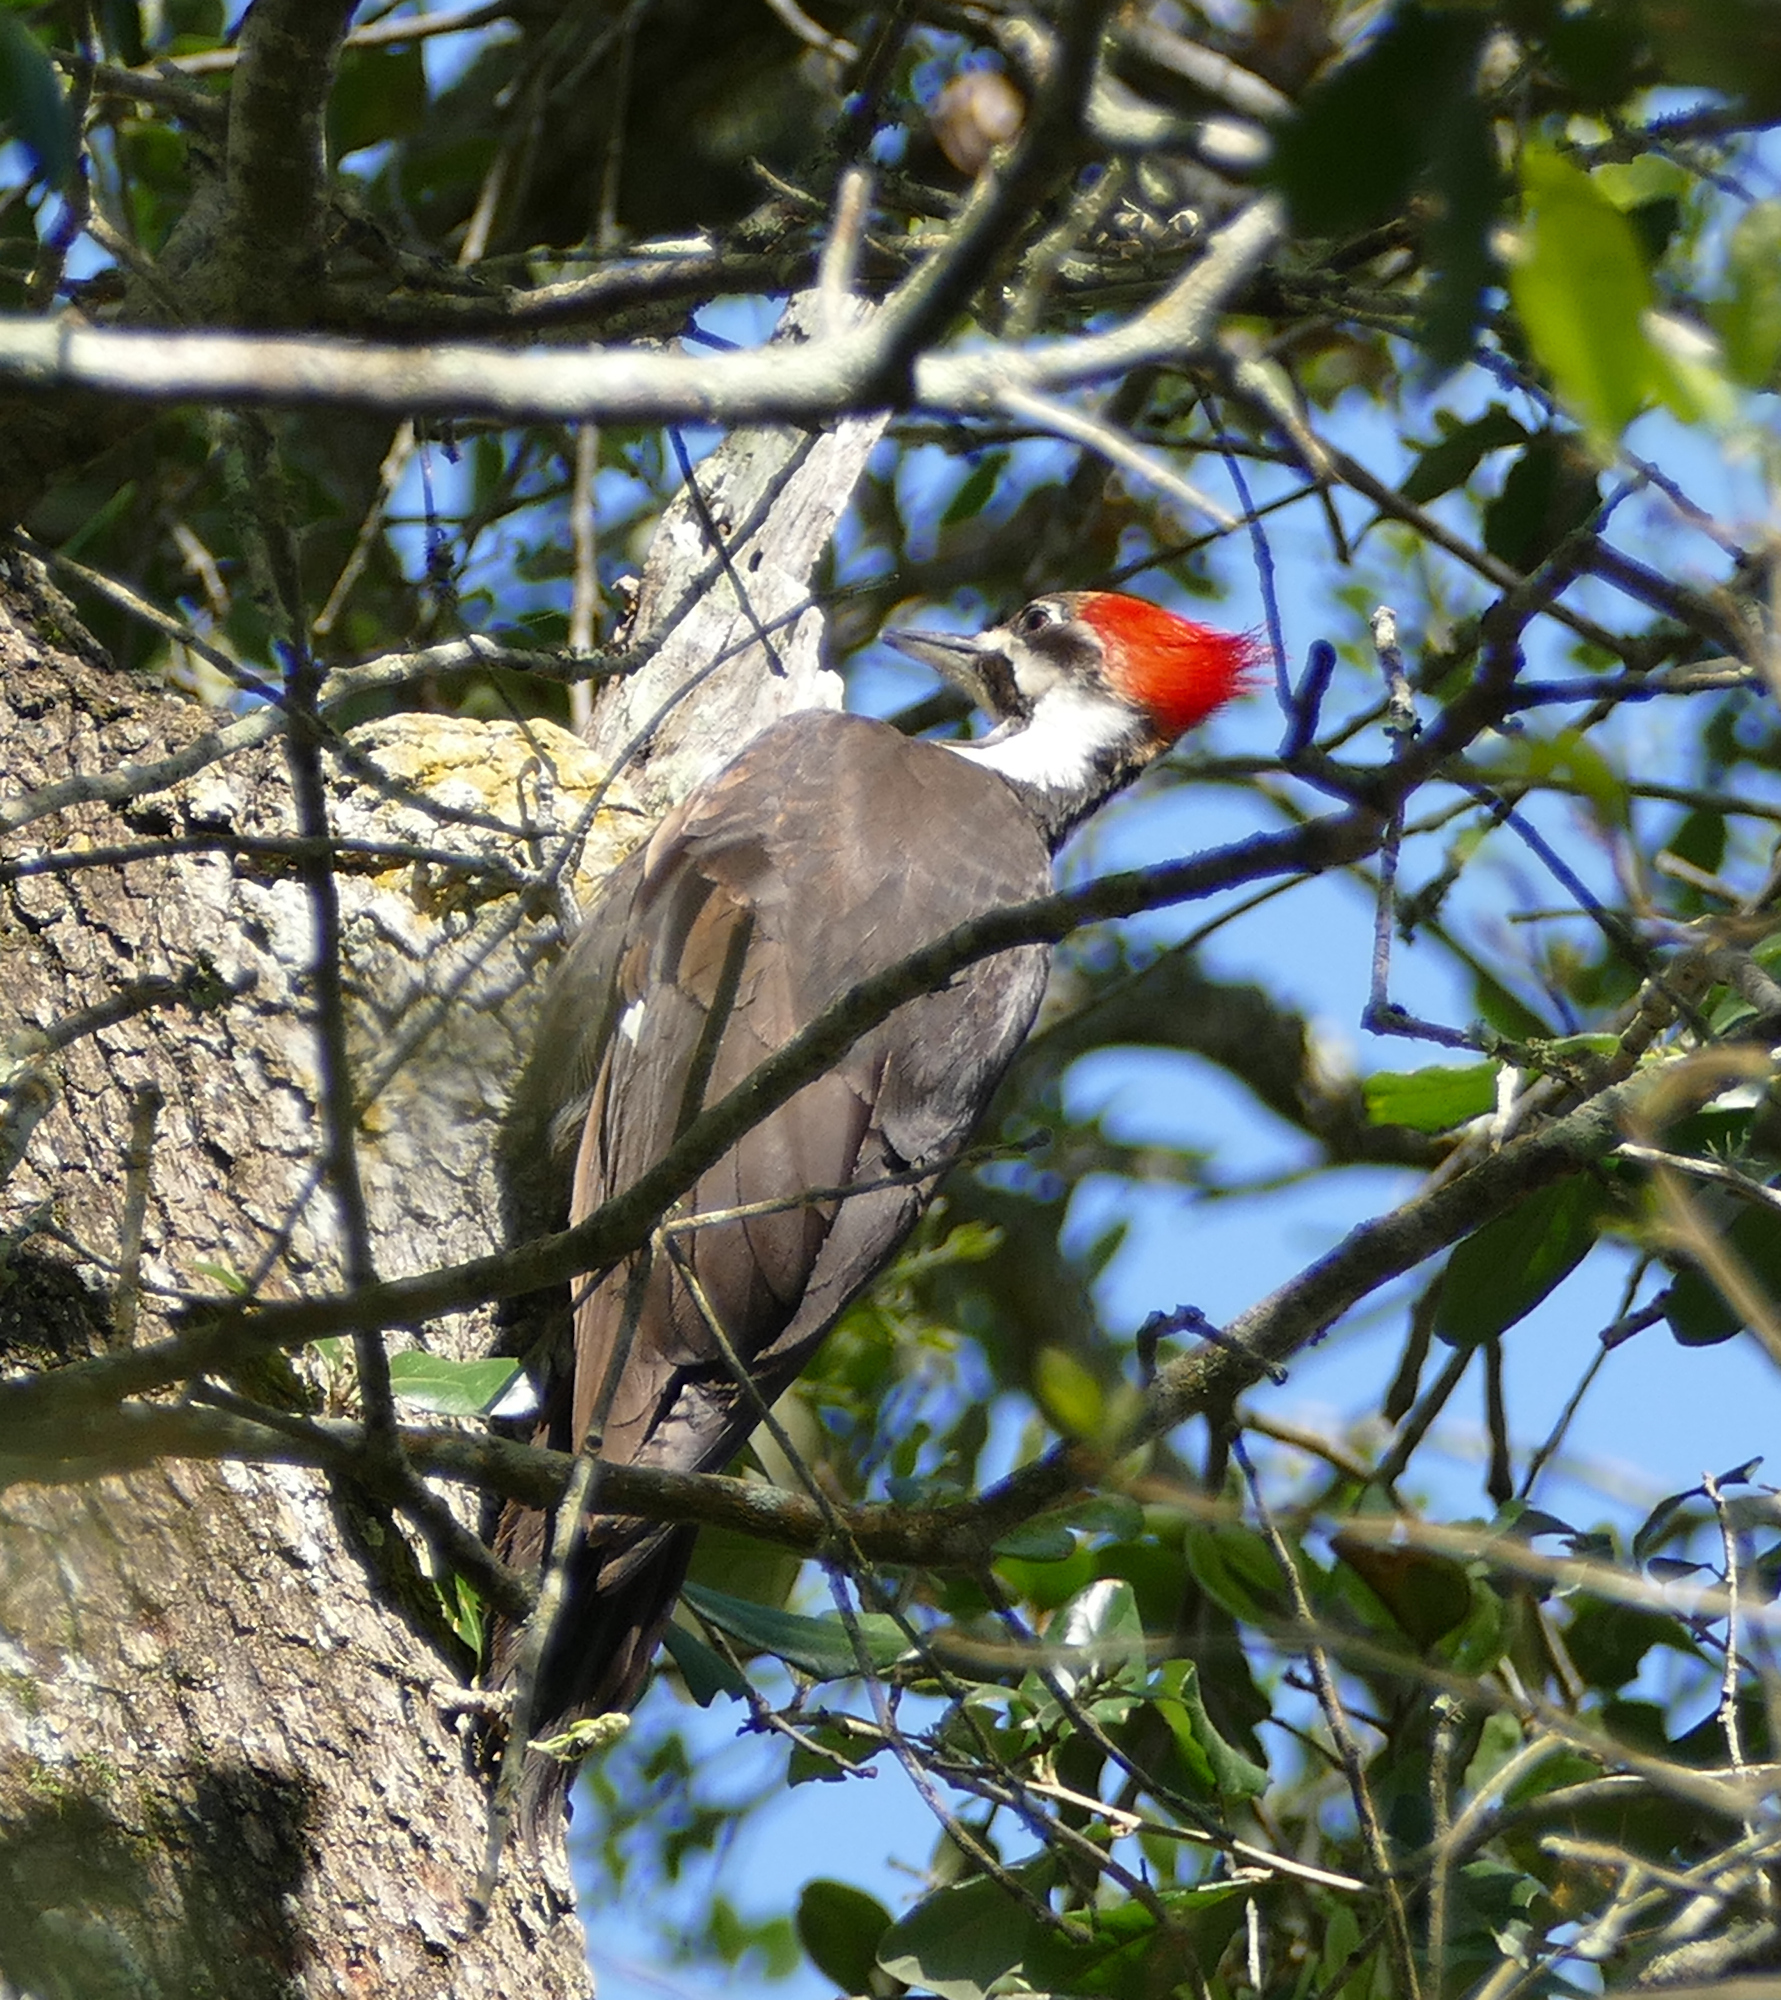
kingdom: Animalia
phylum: Chordata
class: Aves
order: Piciformes
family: Picidae
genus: Dryocopus
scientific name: Dryocopus pileatus
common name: Pileated woodpecker
